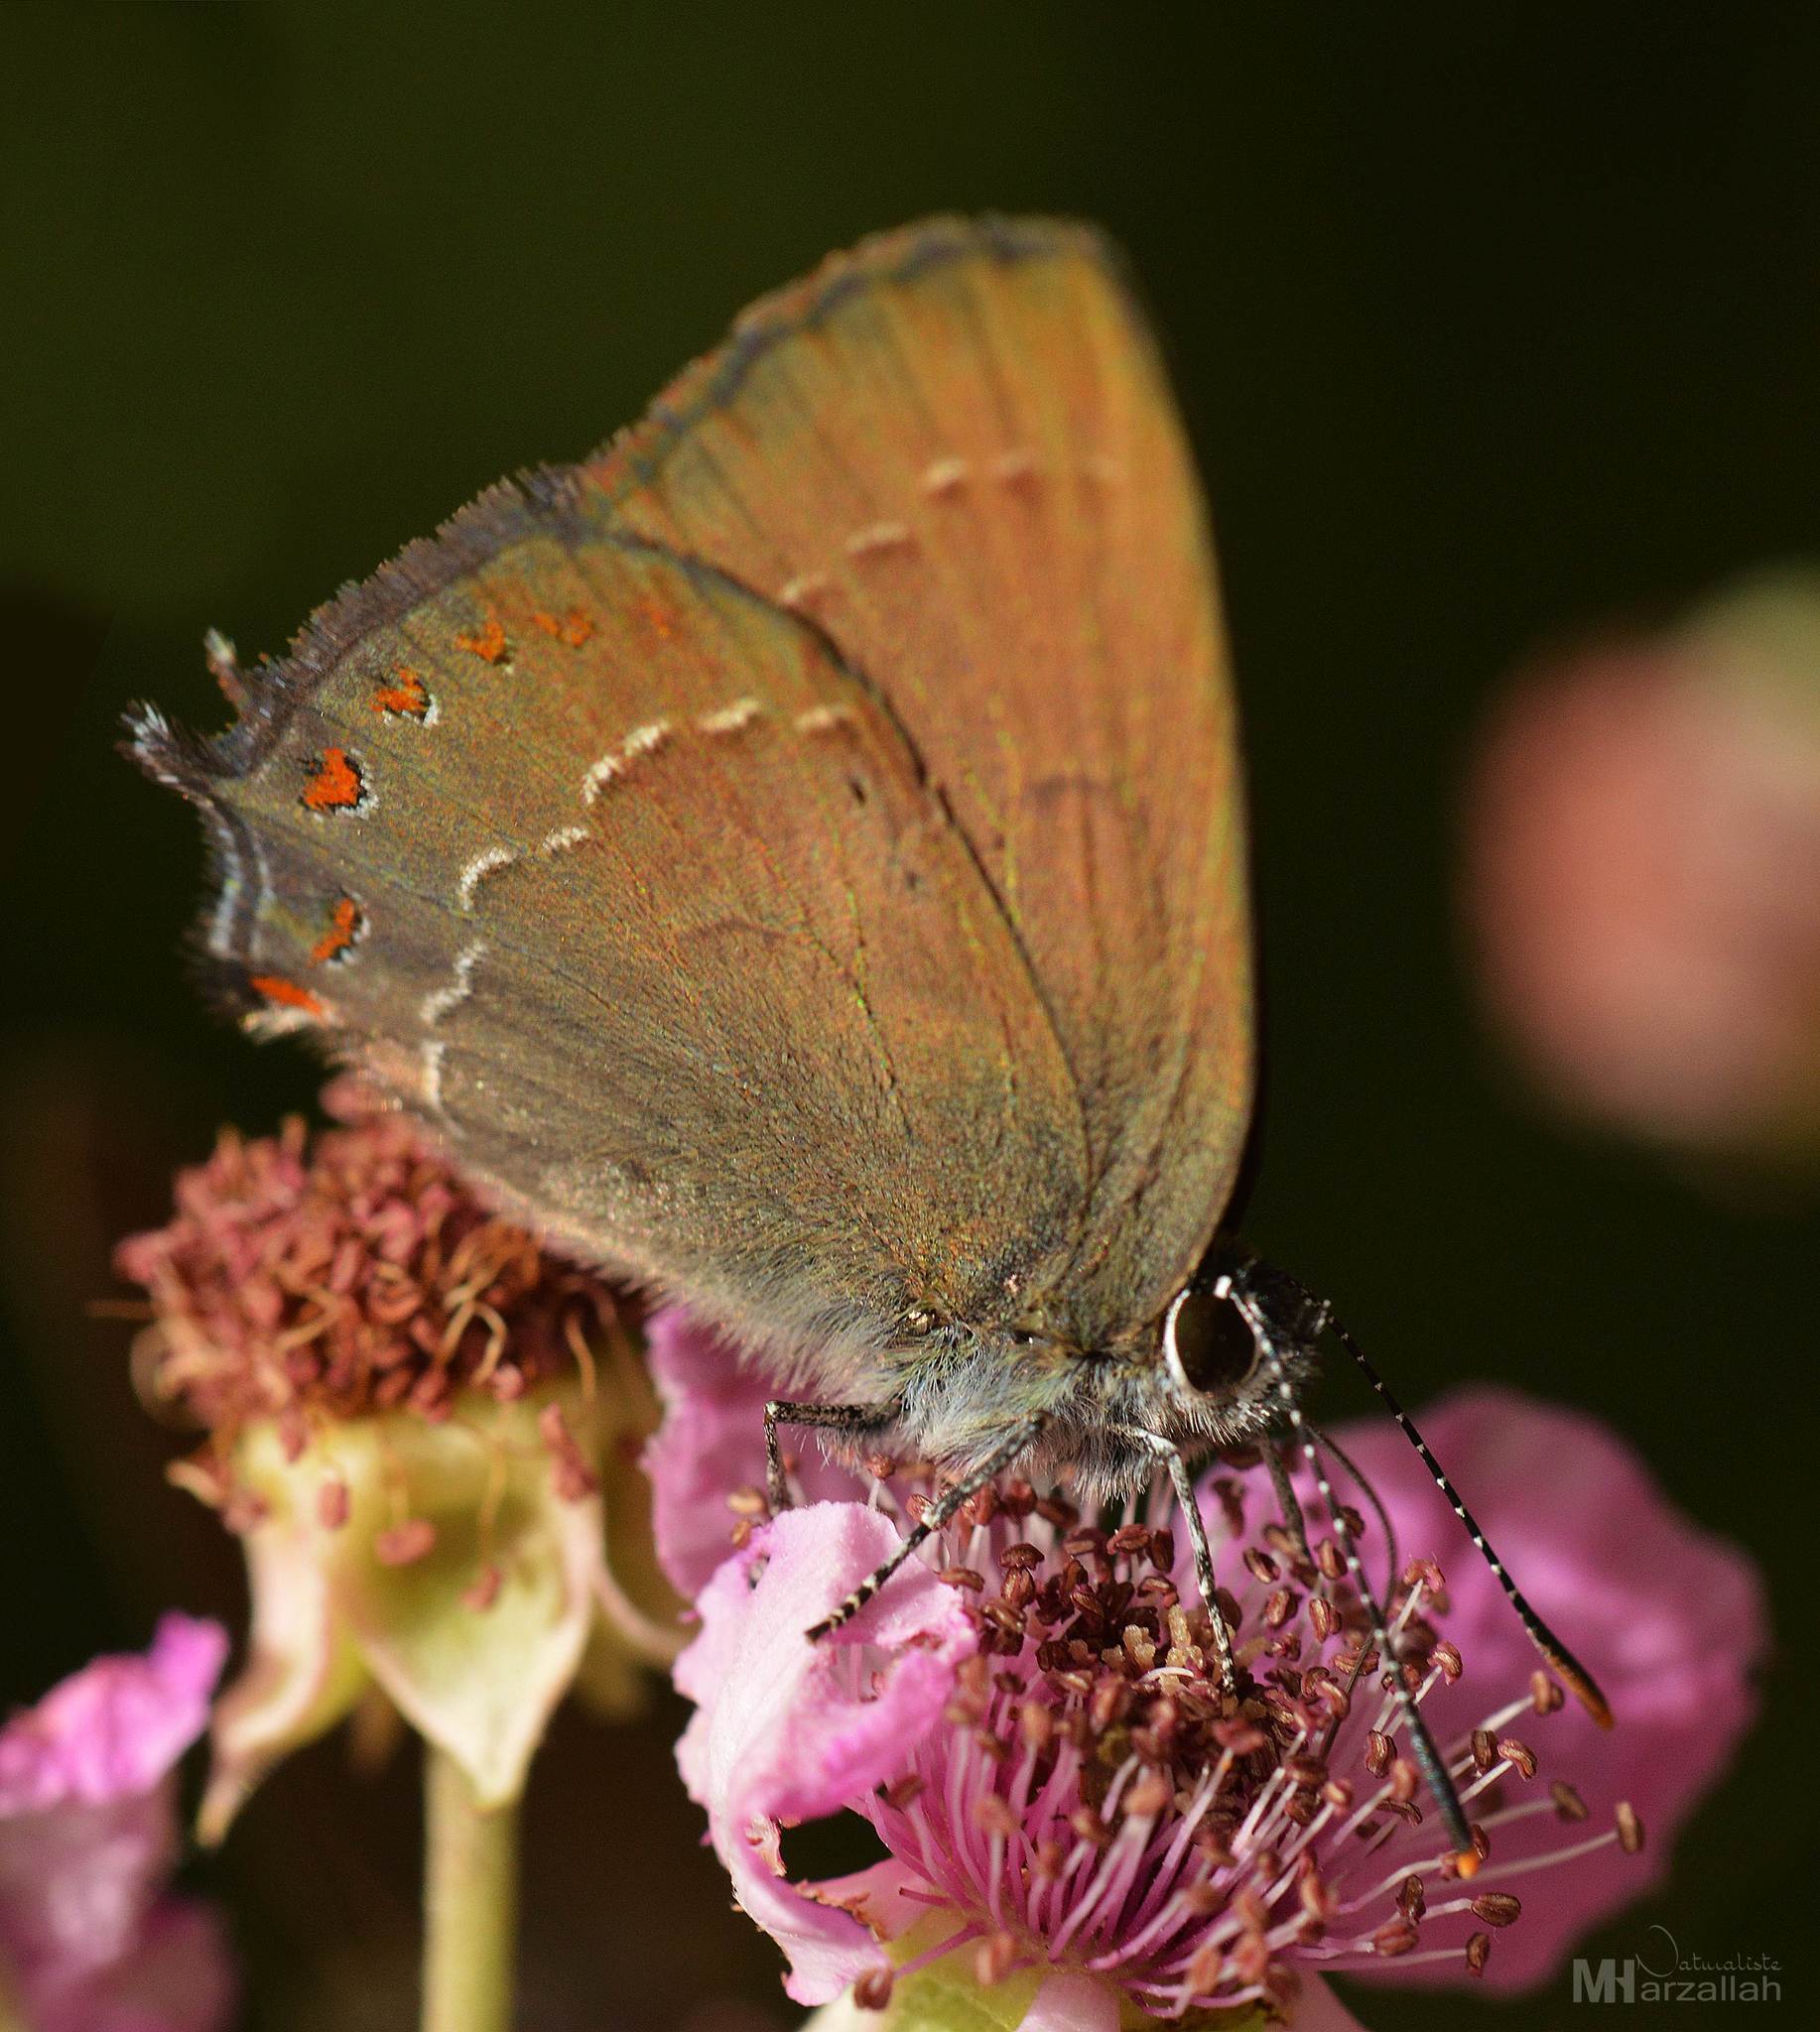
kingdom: Animalia
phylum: Arthropoda
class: Insecta
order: Lepidoptera
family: Lycaenidae
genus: Fixsenia
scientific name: Fixsenia esculi
